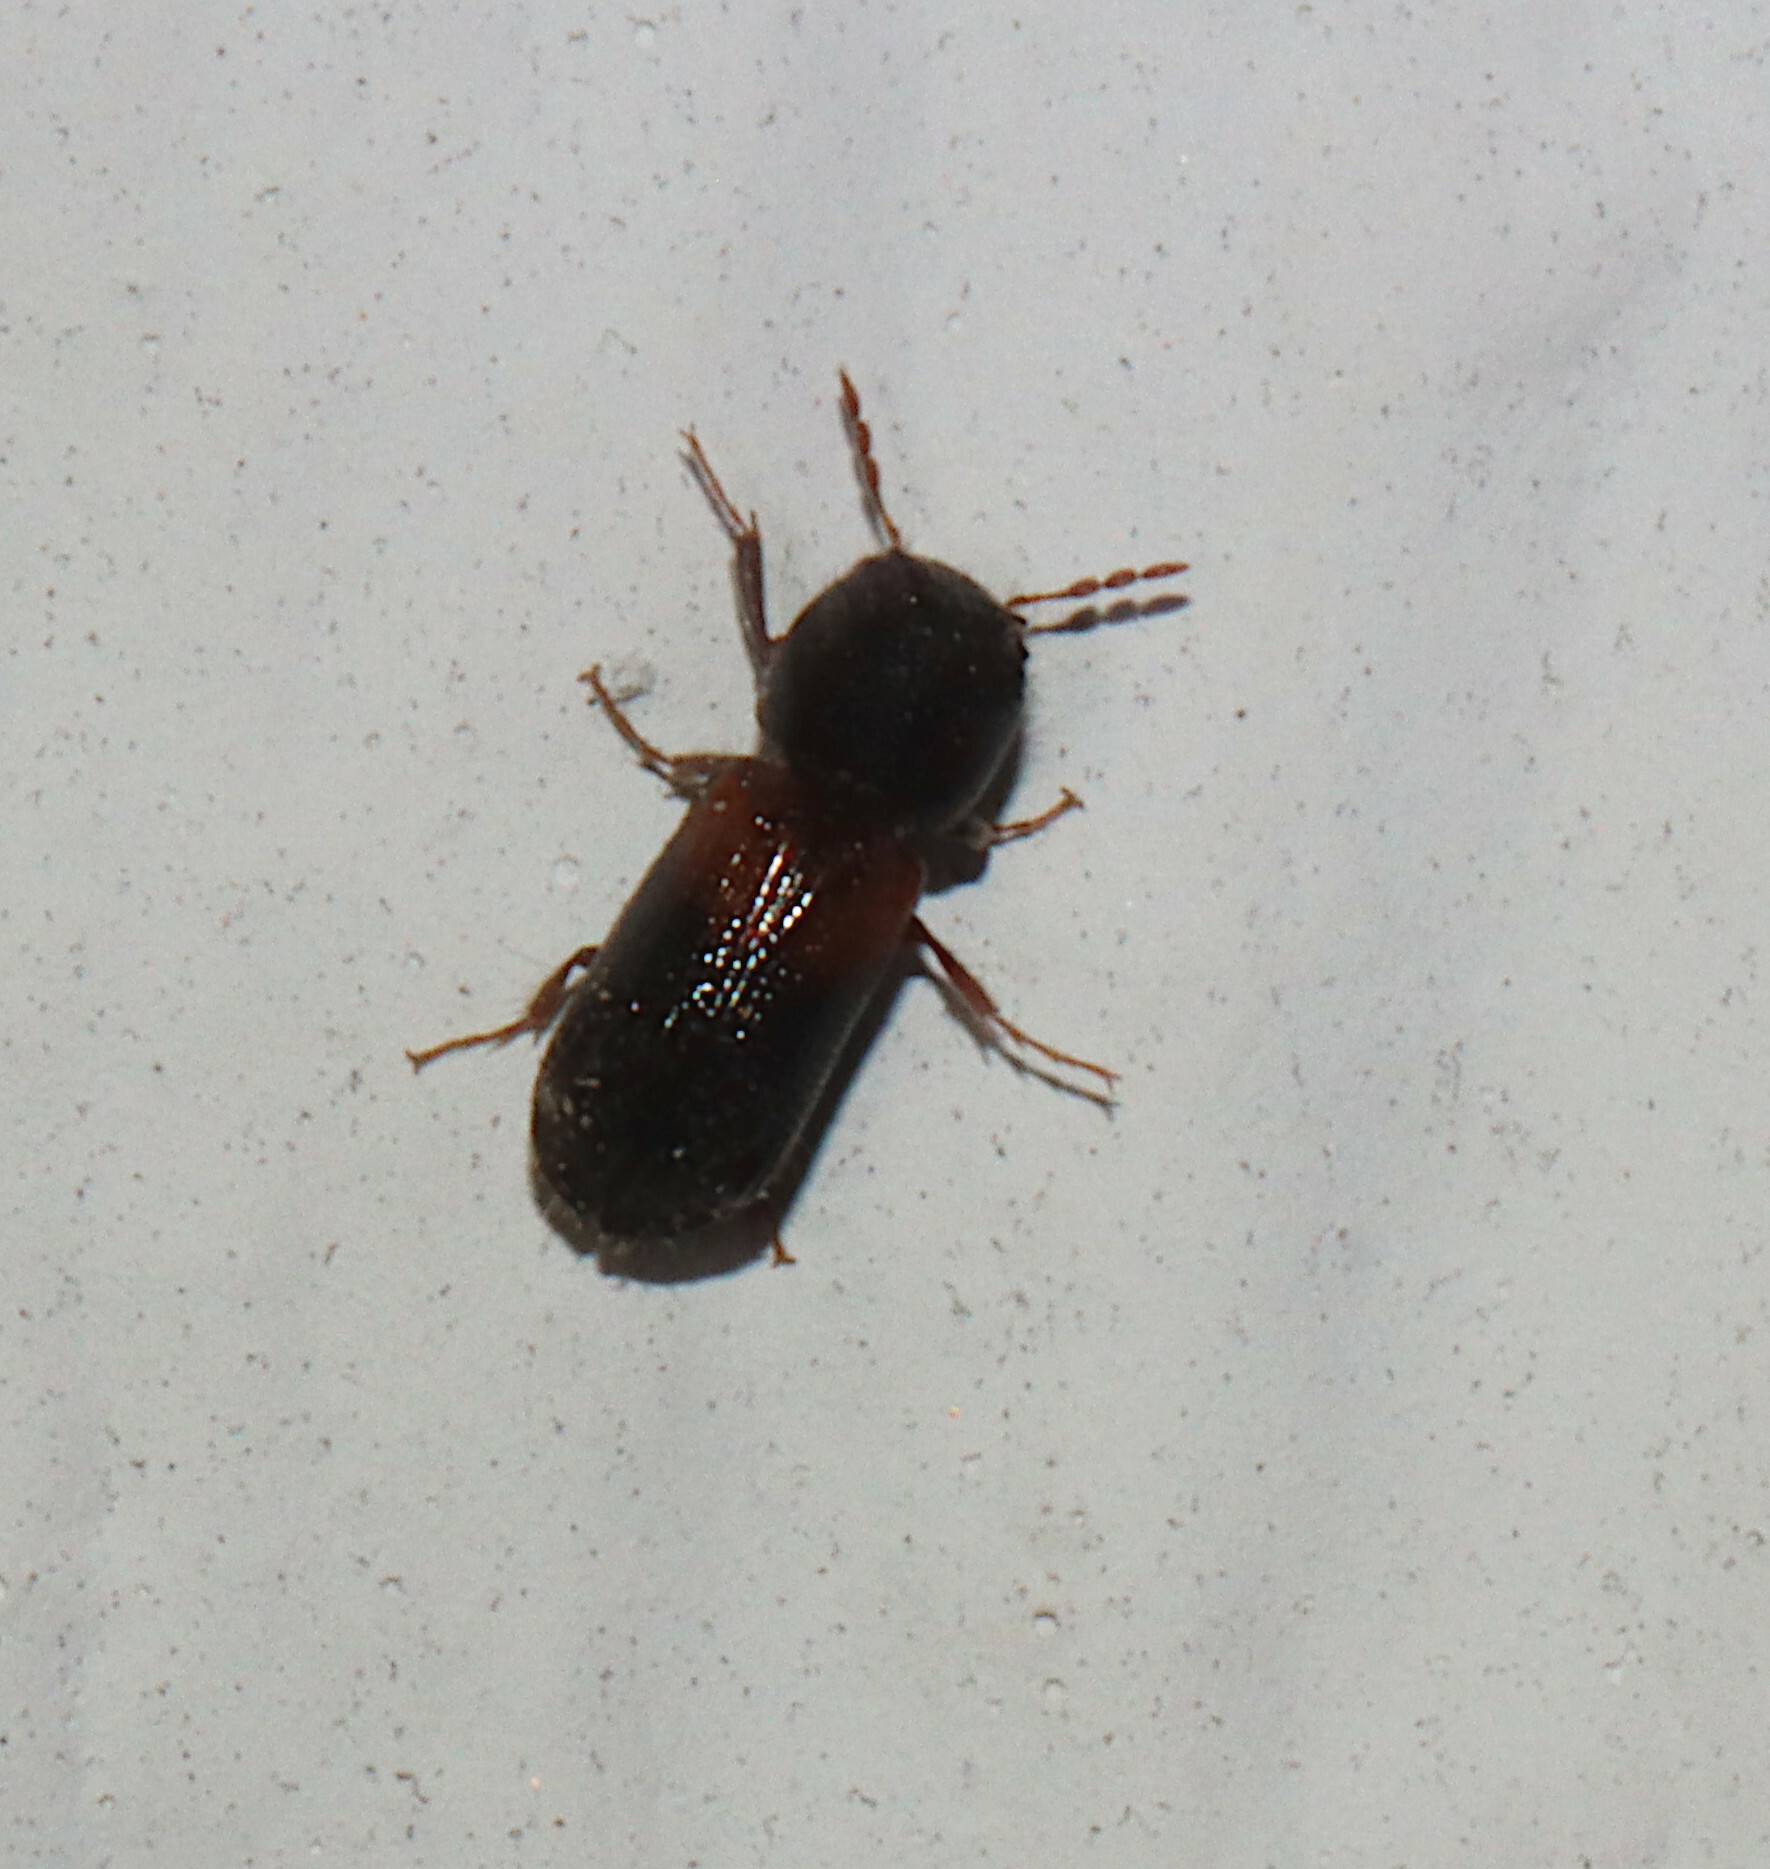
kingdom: Animalia
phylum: Arthropoda
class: Insecta
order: Coleoptera
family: Bostrichidae
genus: Xylobiops
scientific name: Xylobiops basilaris
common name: Red-shouldered bostrichid
